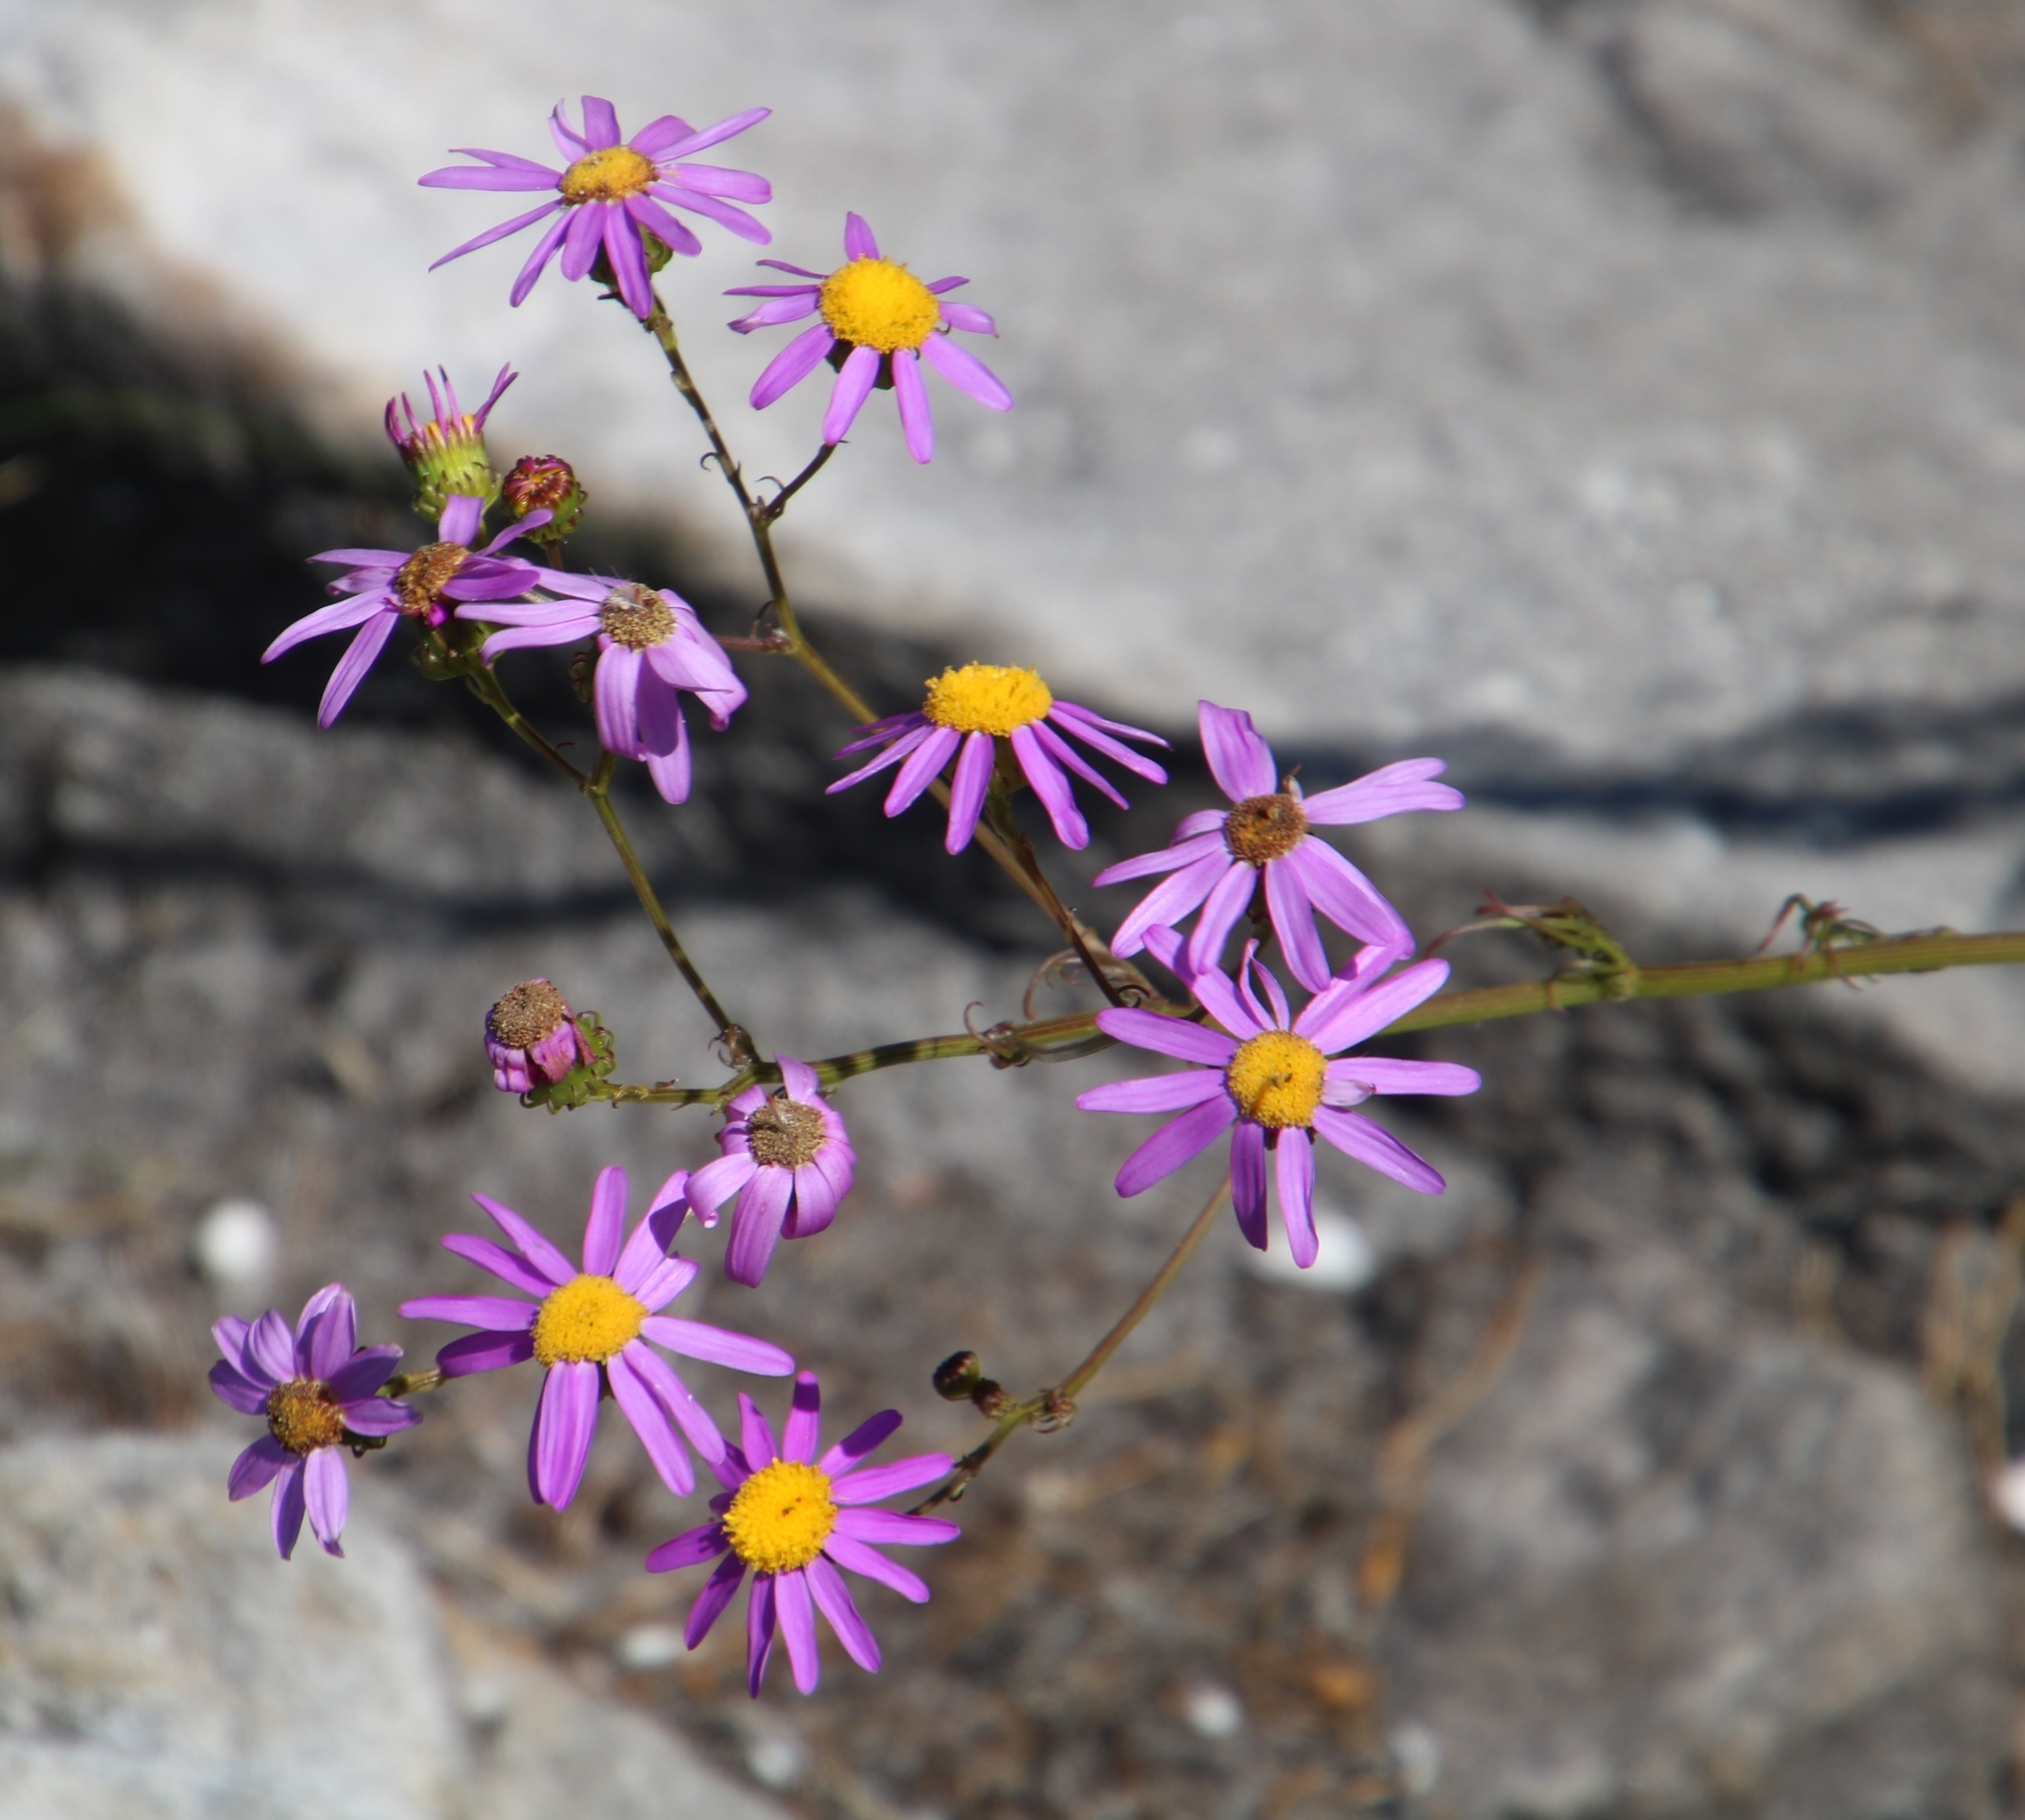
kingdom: Plantae
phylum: Tracheophyta
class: Magnoliopsida
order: Asterales
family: Asteraceae
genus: Senecio
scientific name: Senecio elegans
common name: Purple groundsel
